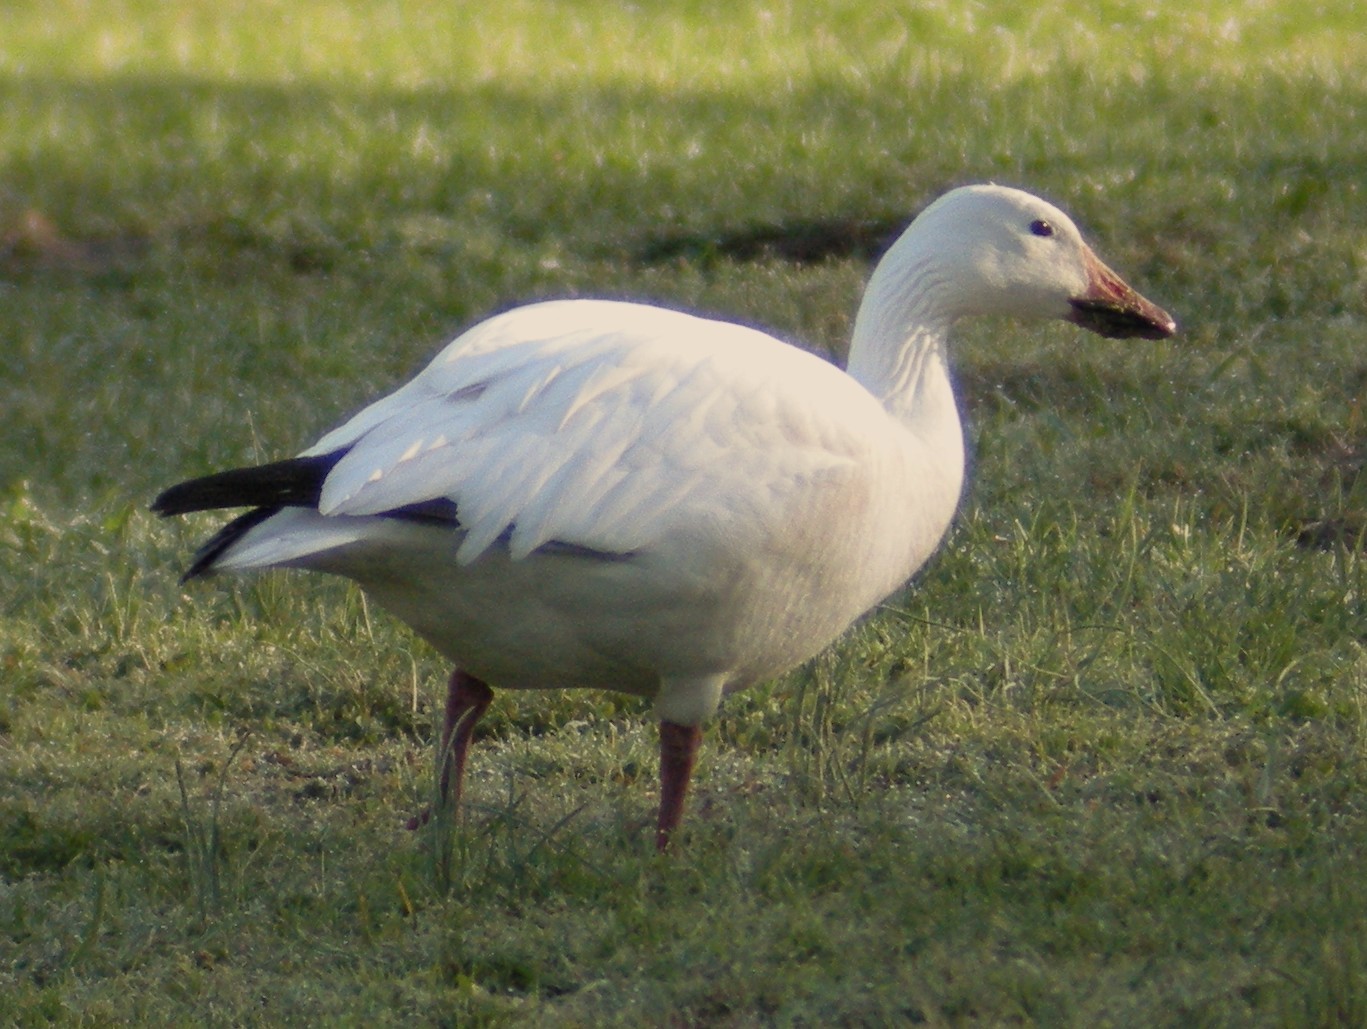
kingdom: Animalia
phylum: Chordata
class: Aves
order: Anseriformes
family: Anatidae
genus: Anser
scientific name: Anser caerulescens
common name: Snow goose
